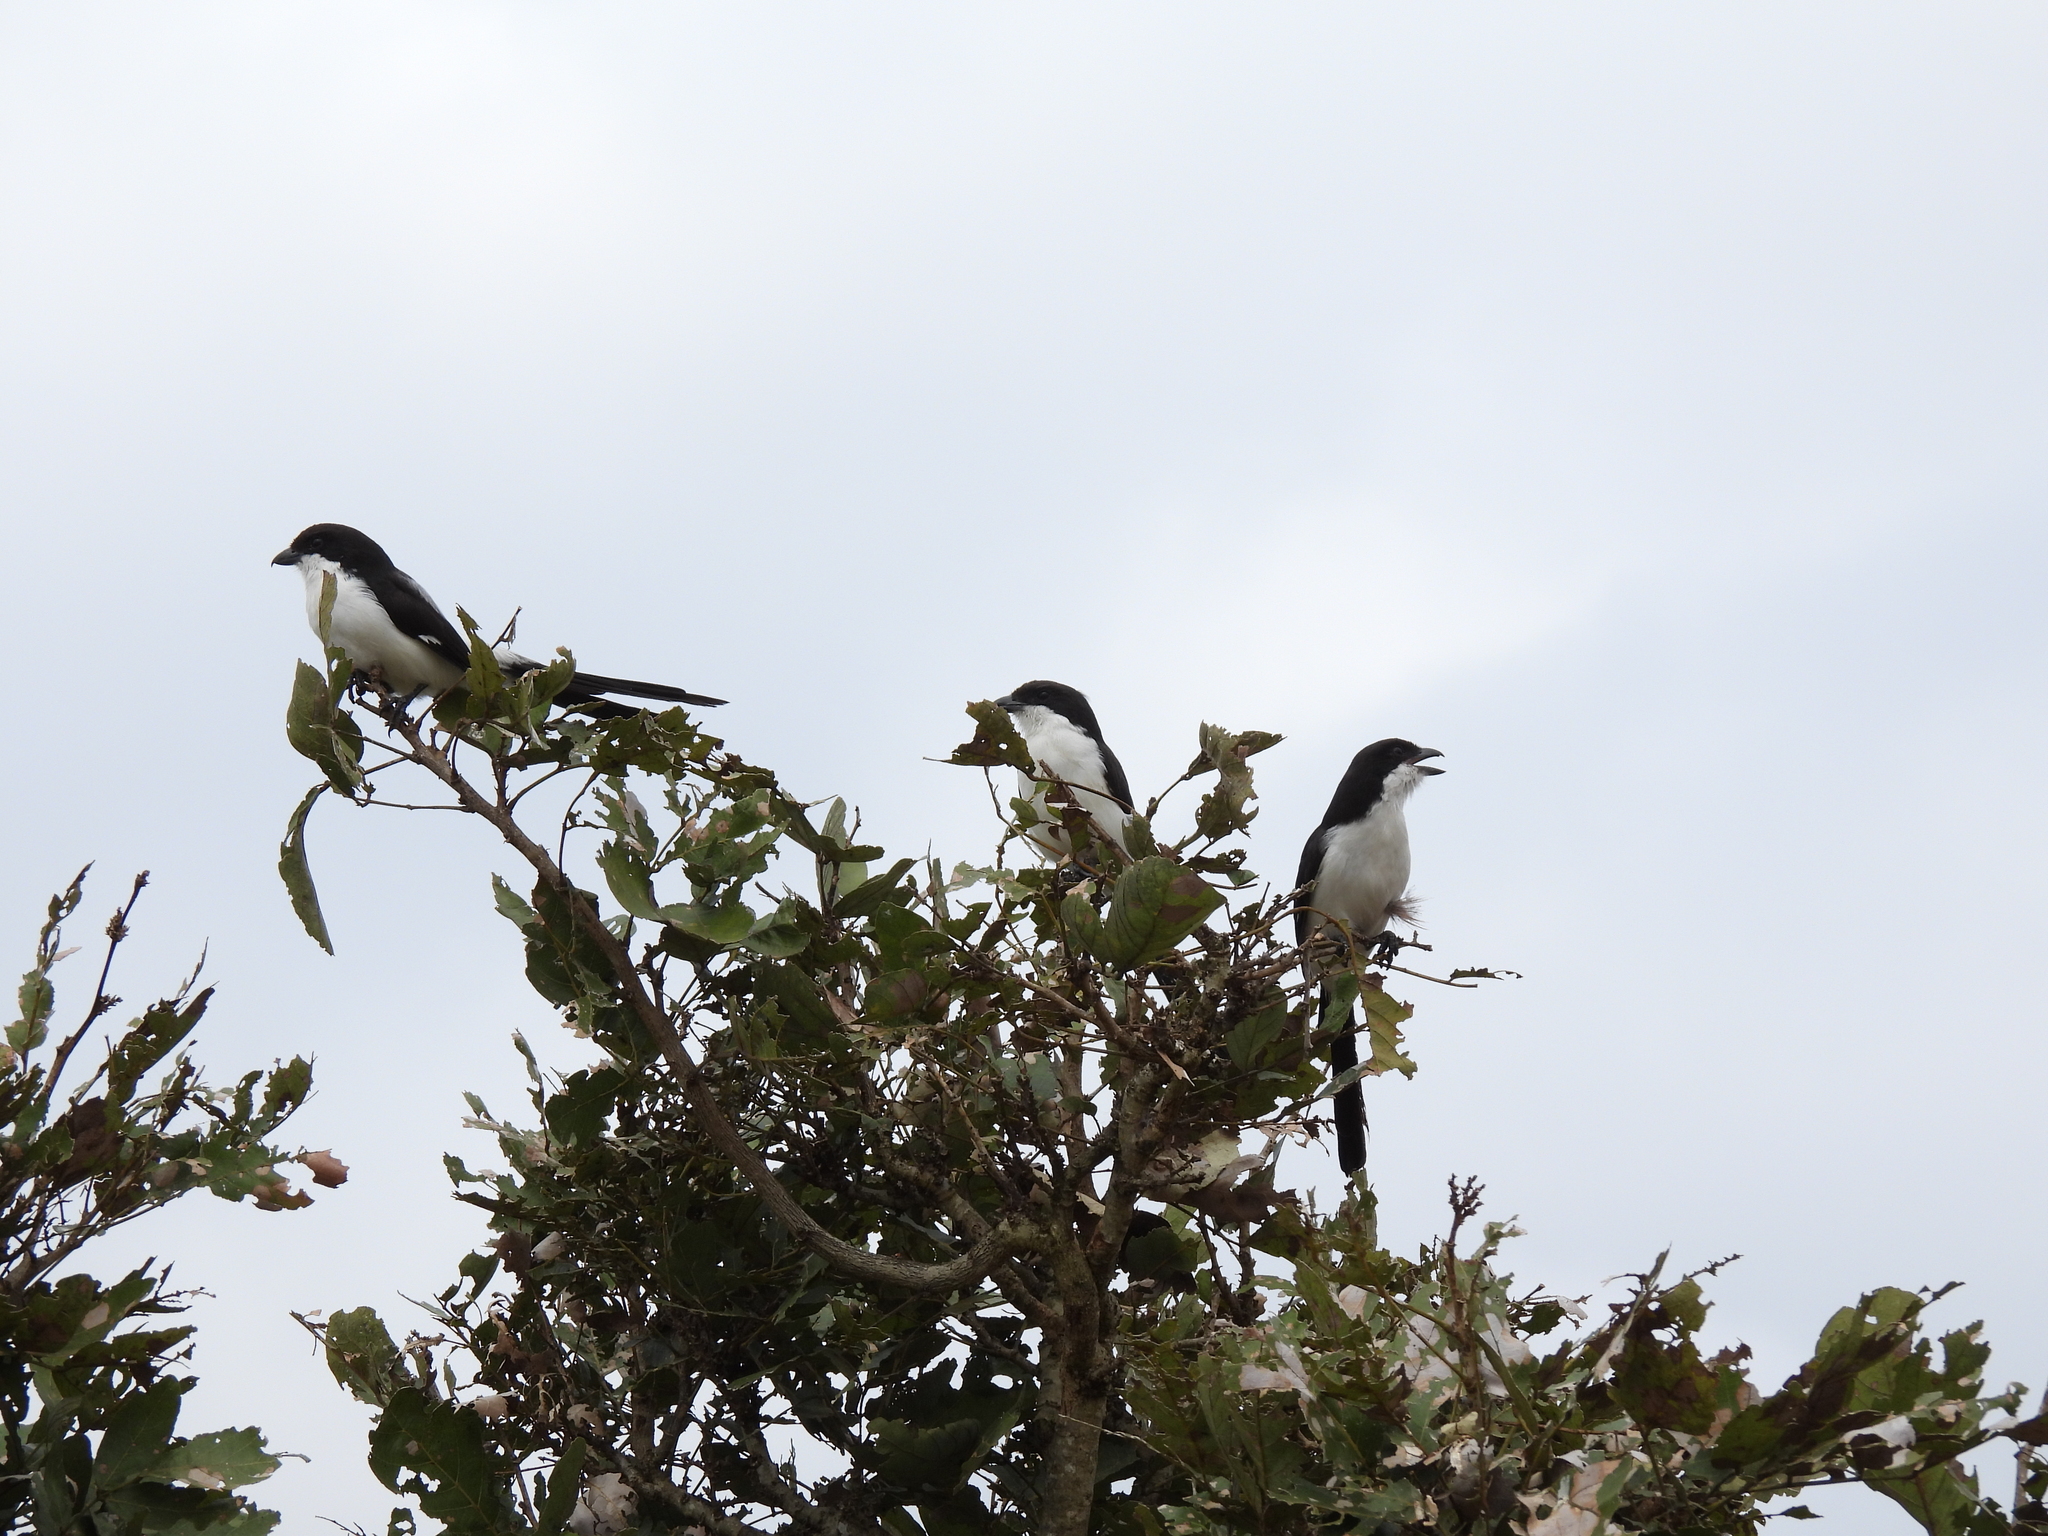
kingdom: Animalia
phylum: Chordata
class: Aves
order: Passeriformes
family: Laniidae
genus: Lanius
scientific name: Lanius cabanisi
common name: Long-tailed fiscal
